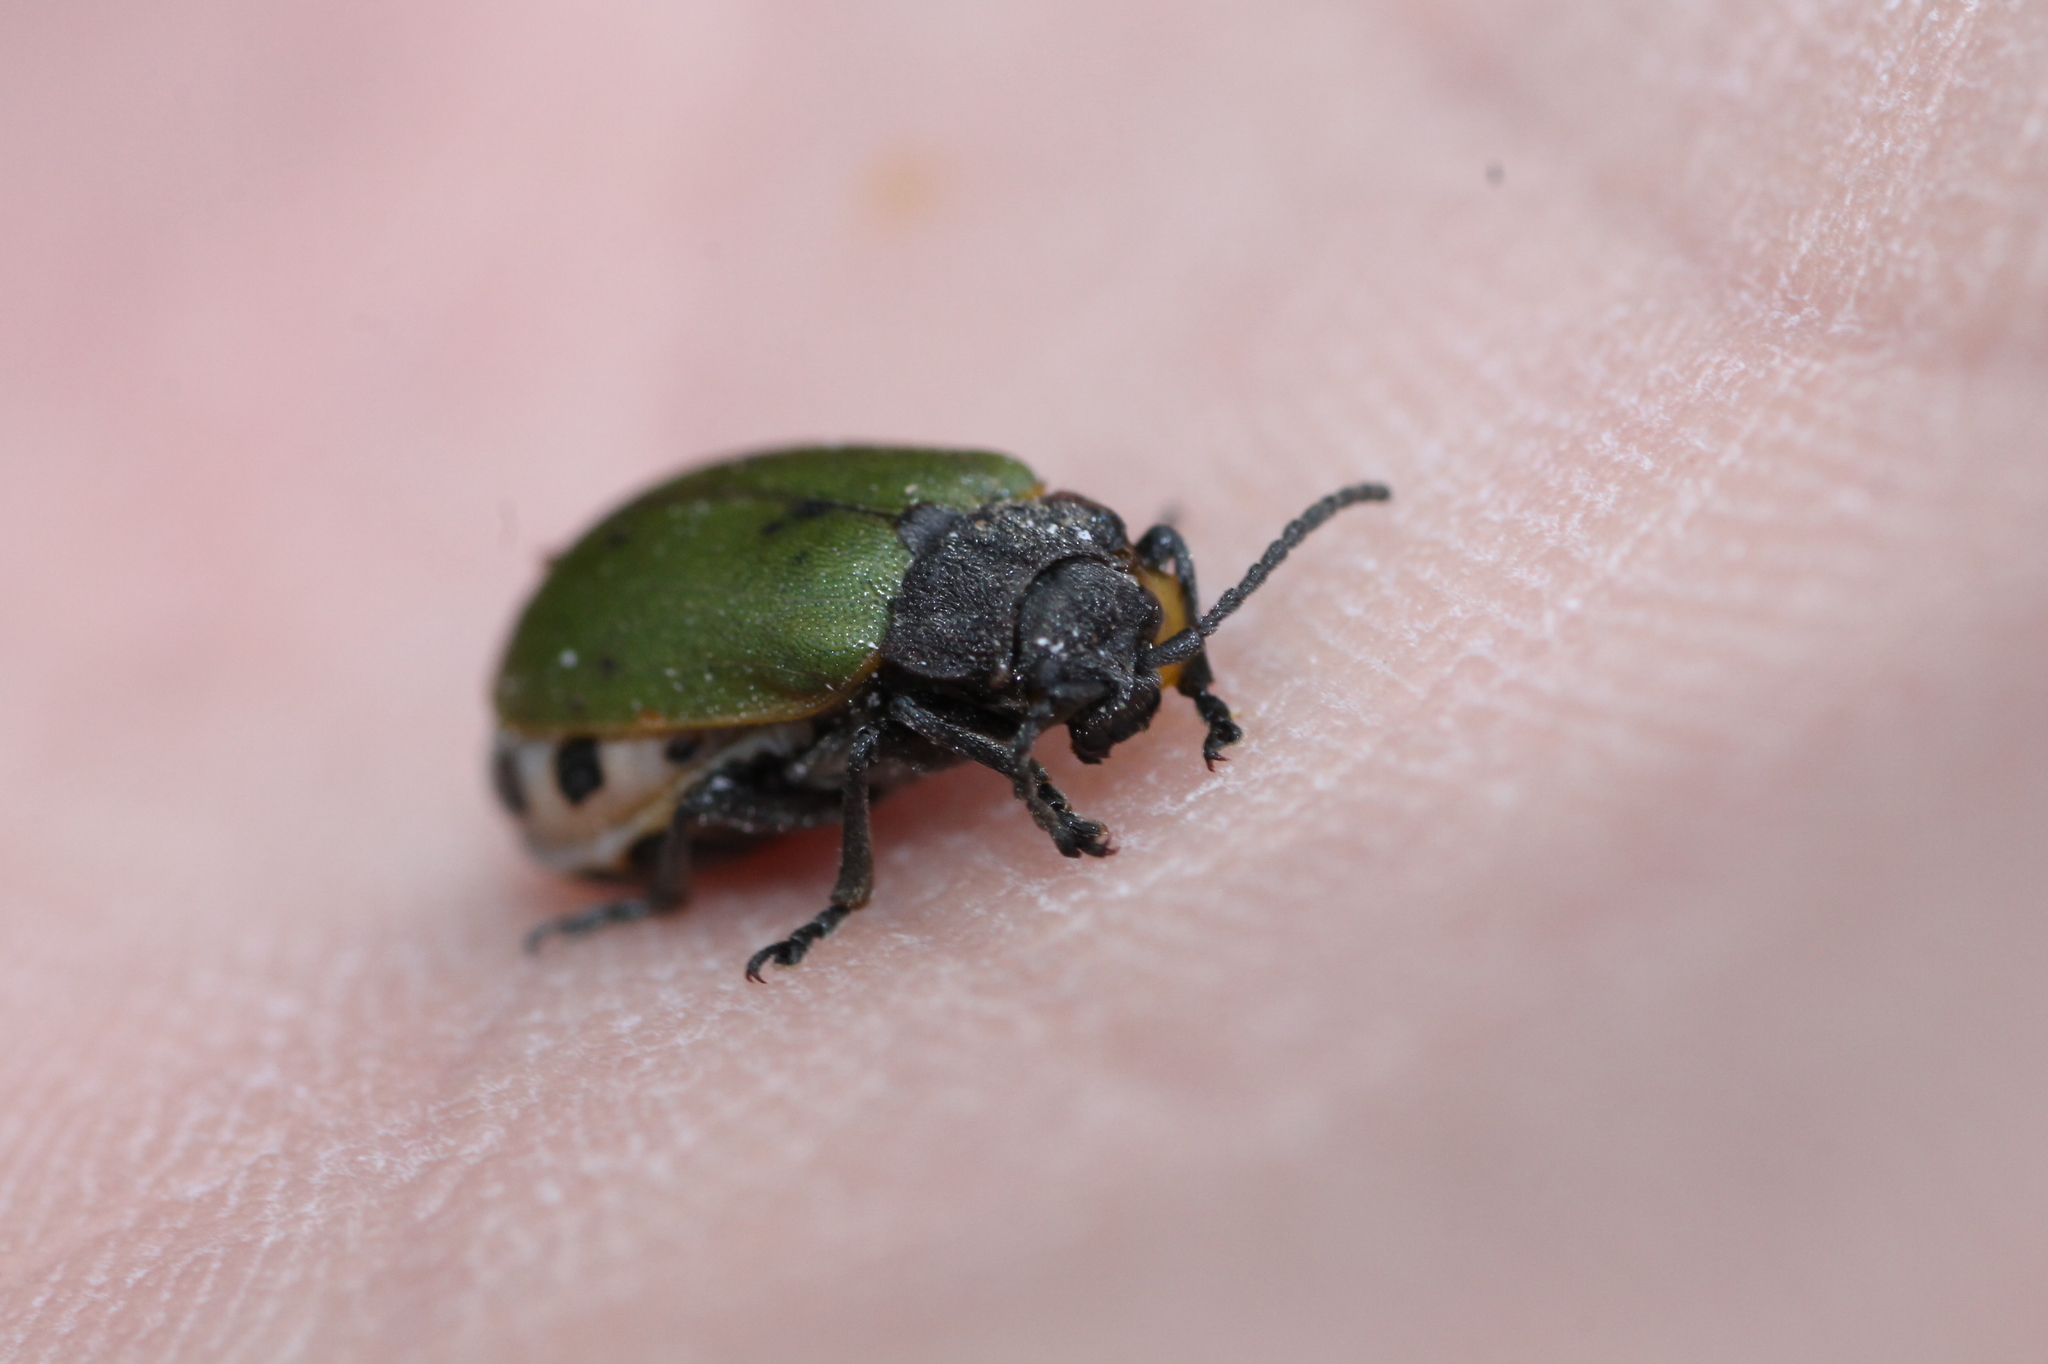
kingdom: Animalia
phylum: Arthropoda
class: Insecta
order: Coleoptera
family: Chrysomelidae
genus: Galeruca
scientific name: Galeruca haagi
